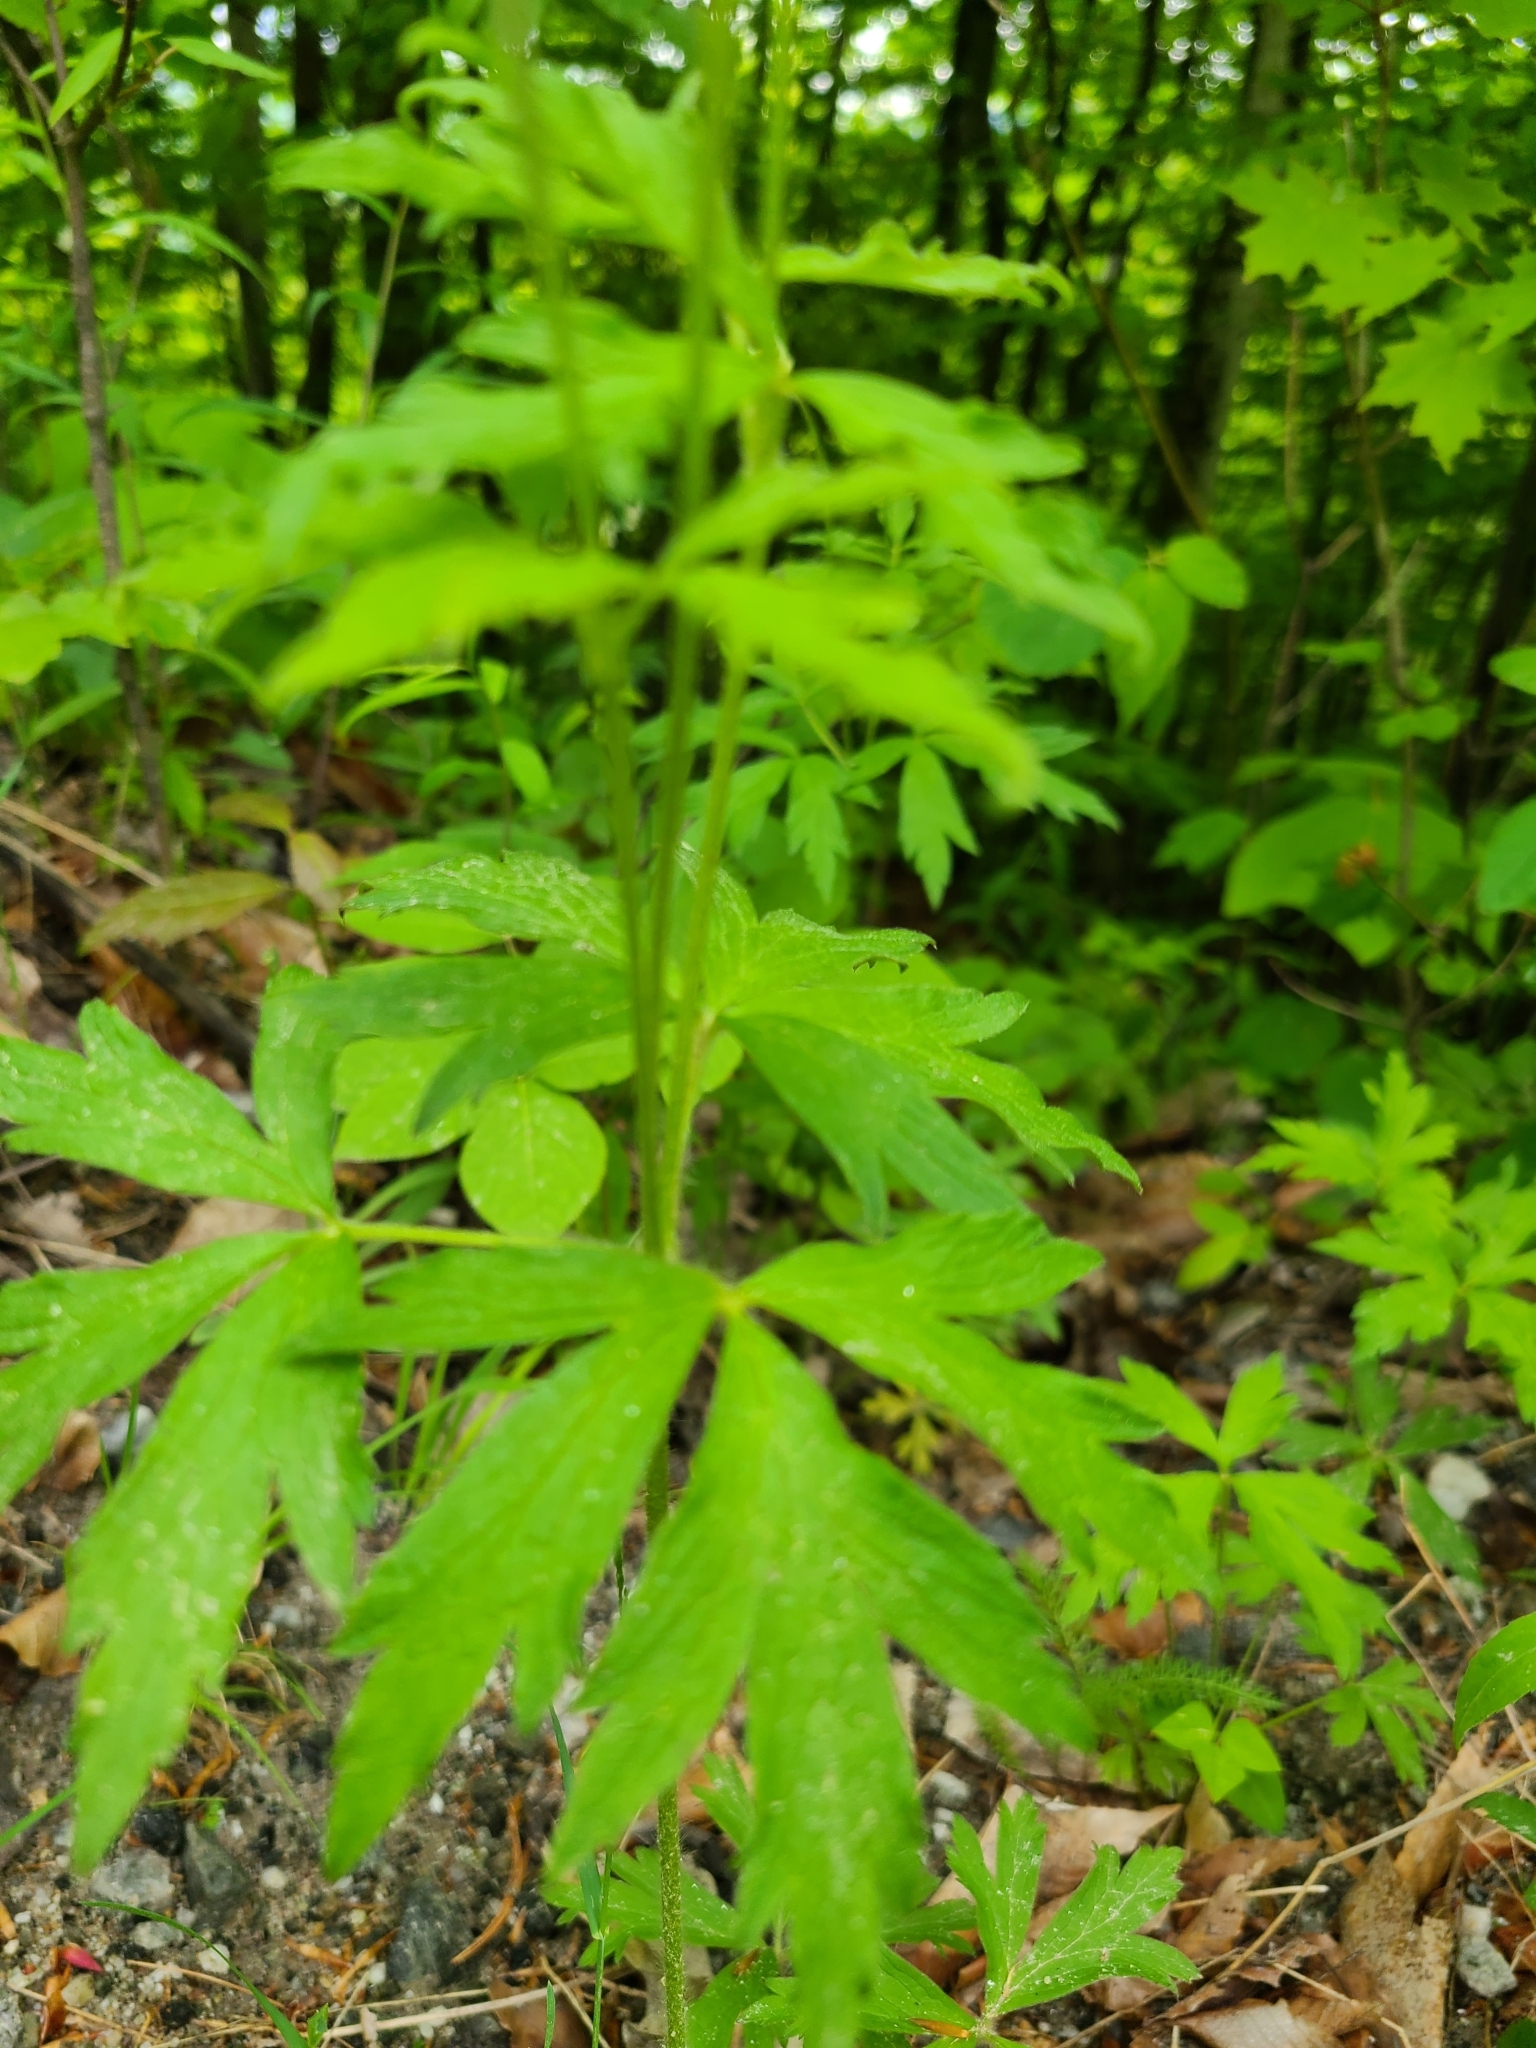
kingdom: Plantae
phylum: Tracheophyta
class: Magnoliopsida
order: Ranunculales
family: Ranunculaceae
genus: Anemone
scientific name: Anemone virginiana
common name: Tall anemone
